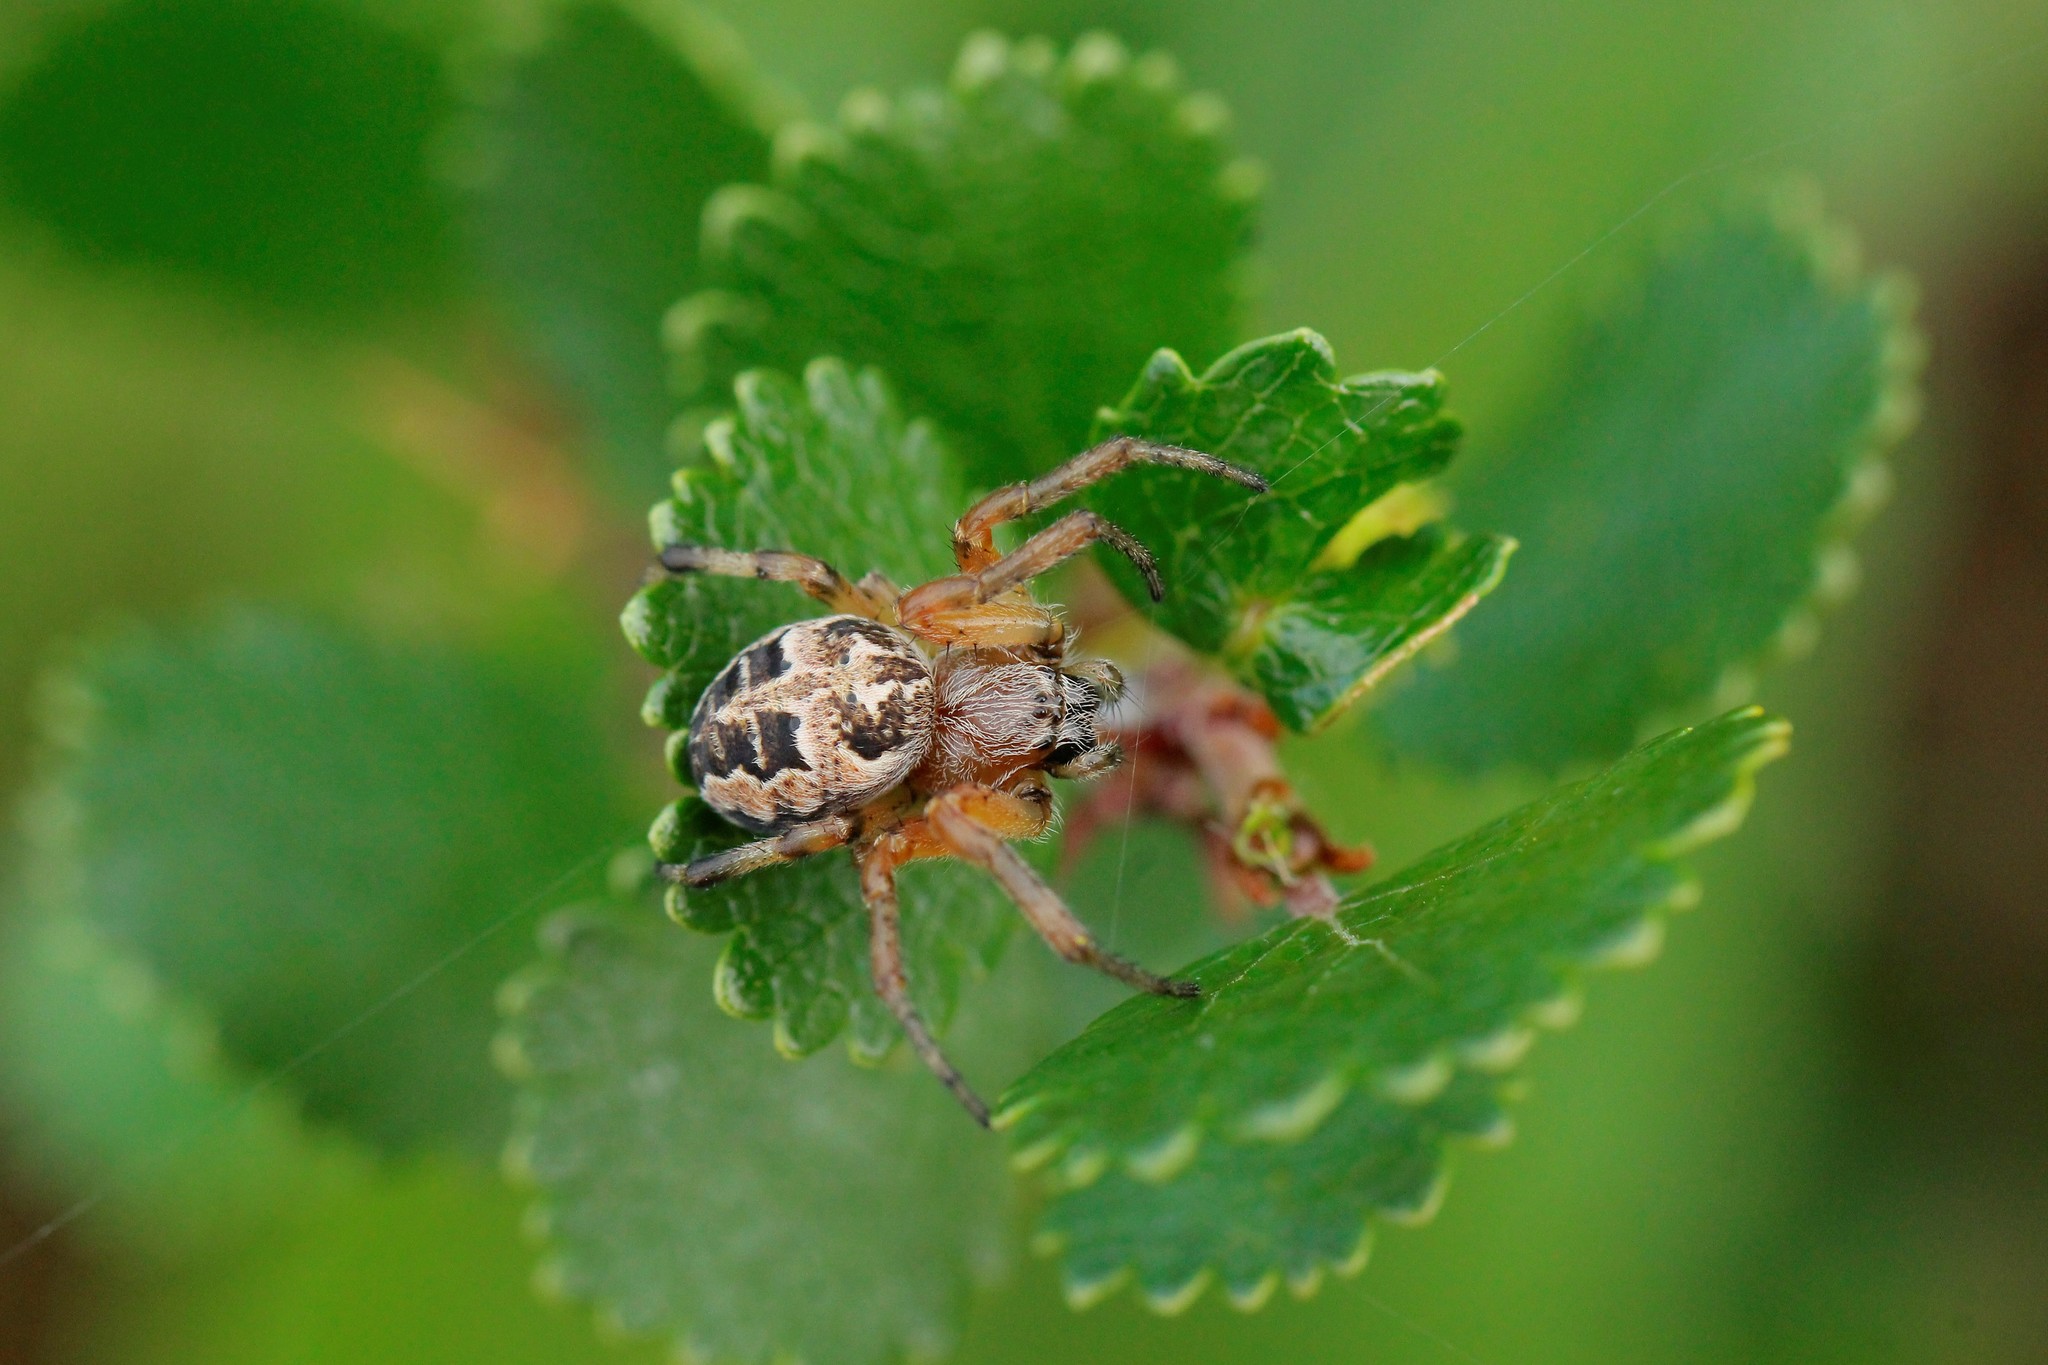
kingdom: Animalia
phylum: Arthropoda
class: Arachnida
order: Araneae
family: Araneidae
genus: Larinioides
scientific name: Larinioides cornutus
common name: Furrow orbweaver
